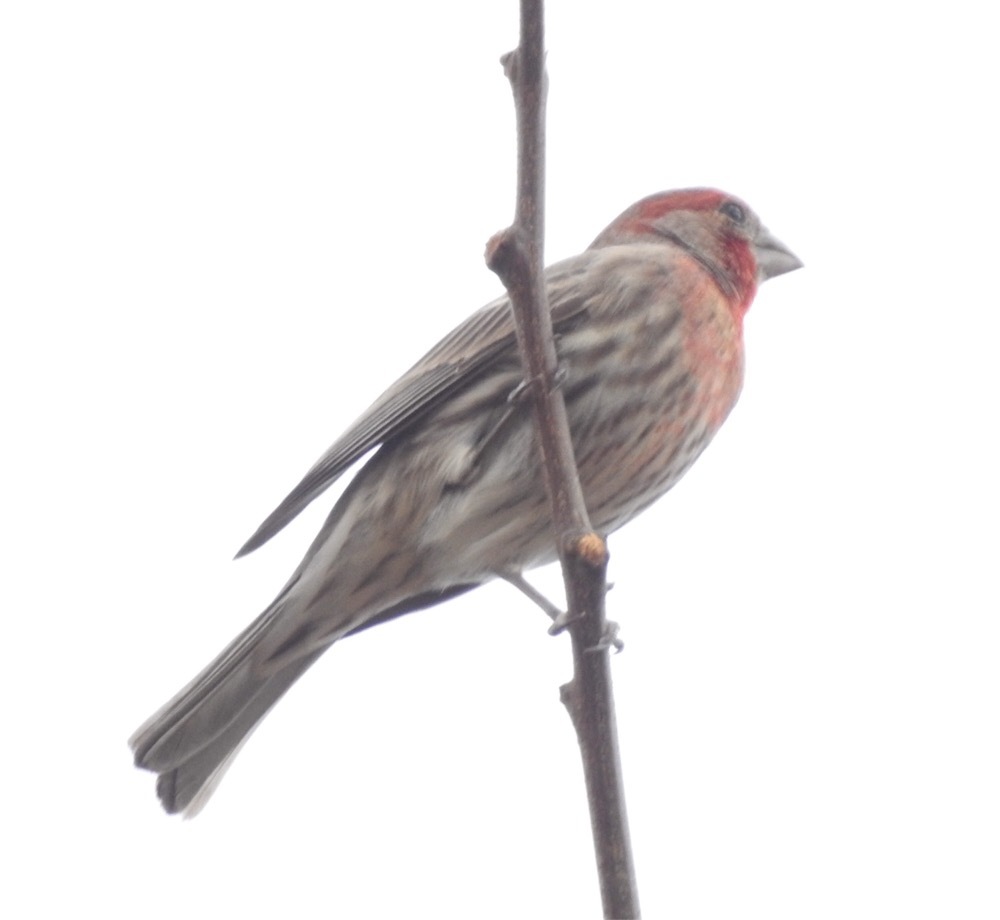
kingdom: Animalia
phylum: Chordata
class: Aves
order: Passeriformes
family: Fringillidae
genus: Haemorhous
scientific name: Haemorhous mexicanus
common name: House finch
